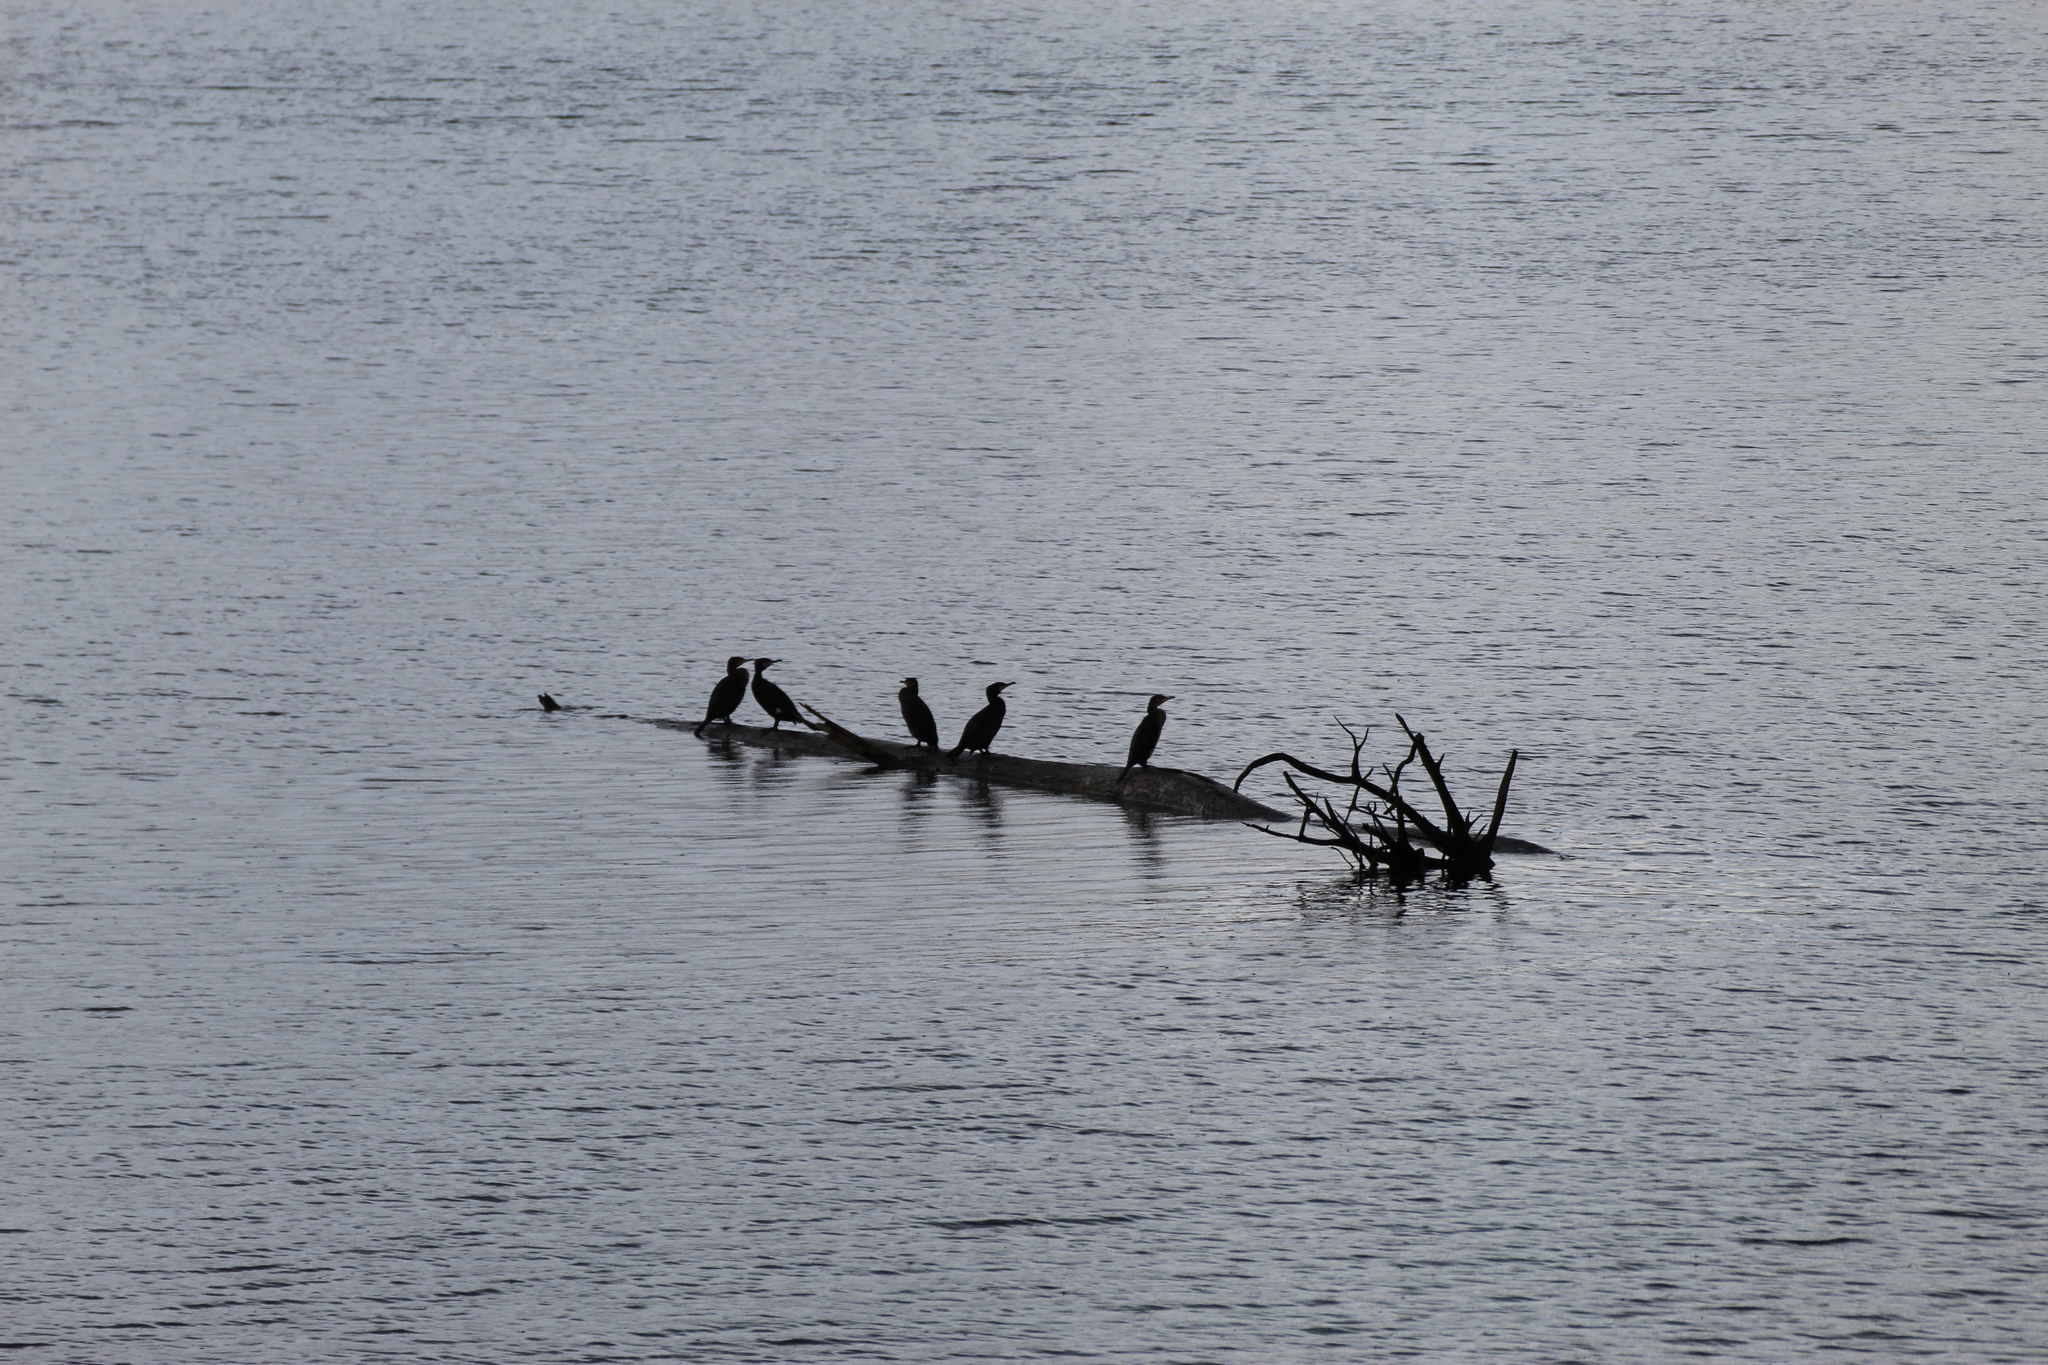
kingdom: Animalia
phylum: Chordata
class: Aves
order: Suliformes
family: Phalacrocoracidae
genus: Phalacrocorax
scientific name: Phalacrocorax carbo
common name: Great cormorant
